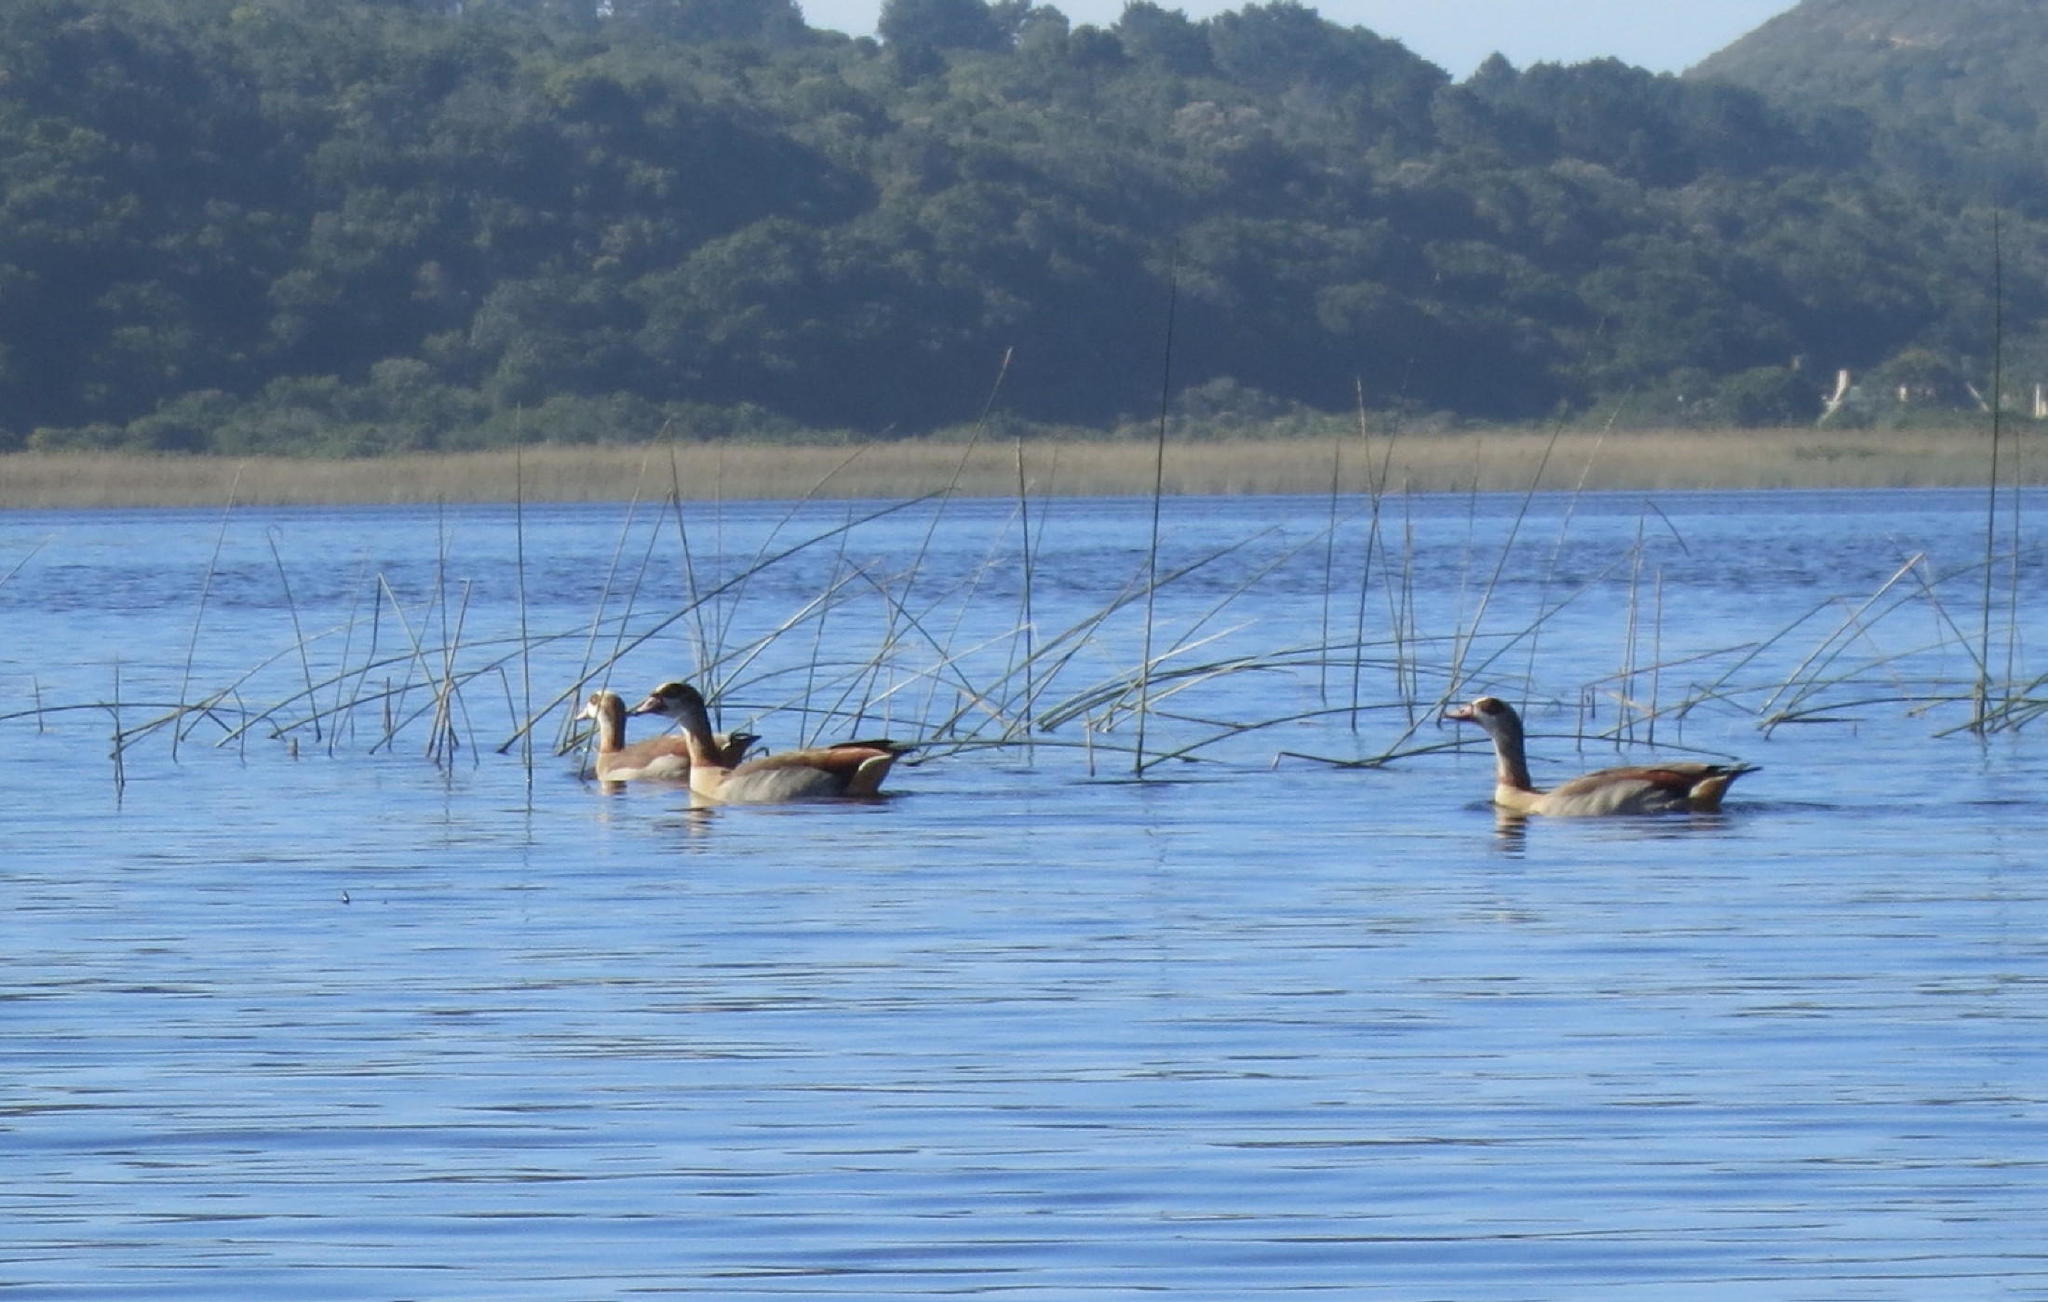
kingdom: Animalia
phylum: Chordata
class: Aves
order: Anseriformes
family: Anatidae
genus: Alopochen
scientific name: Alopochen aegyptiaca
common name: Egyptian goose
